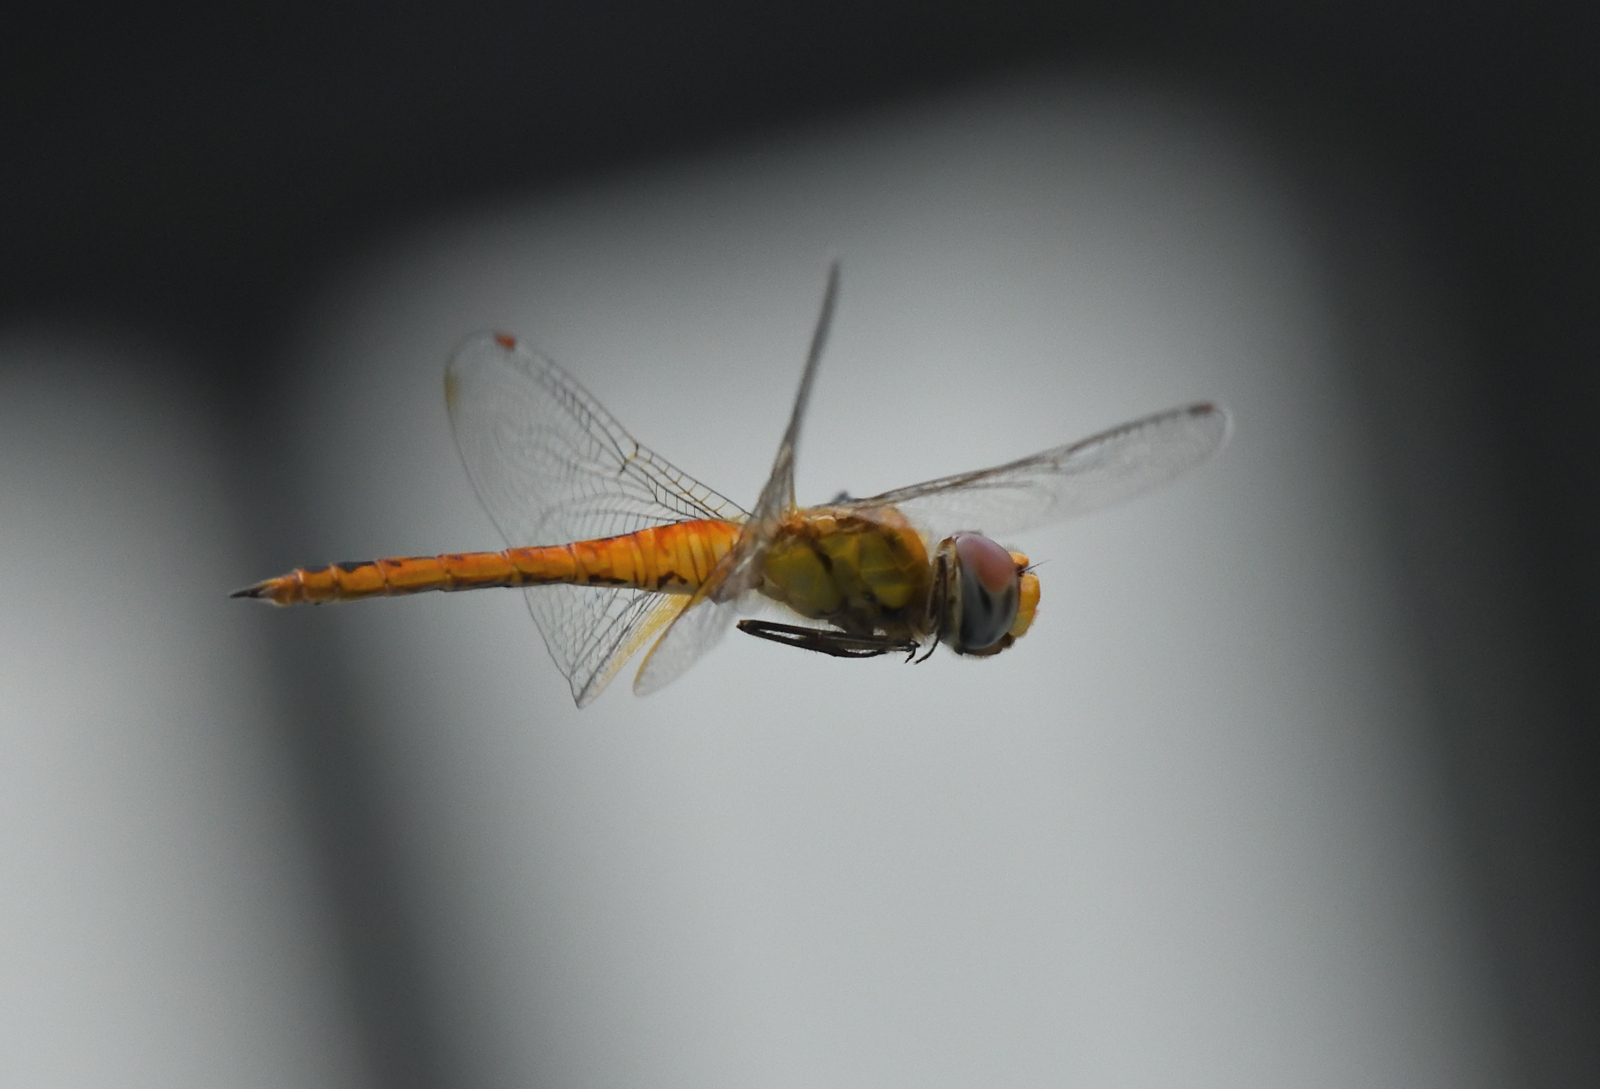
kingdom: Animalia
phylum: Arthropoda
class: Insecta
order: Odonata
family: Libellulidae
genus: Pantala
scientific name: Pantala flavescens
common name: Wandering glider
